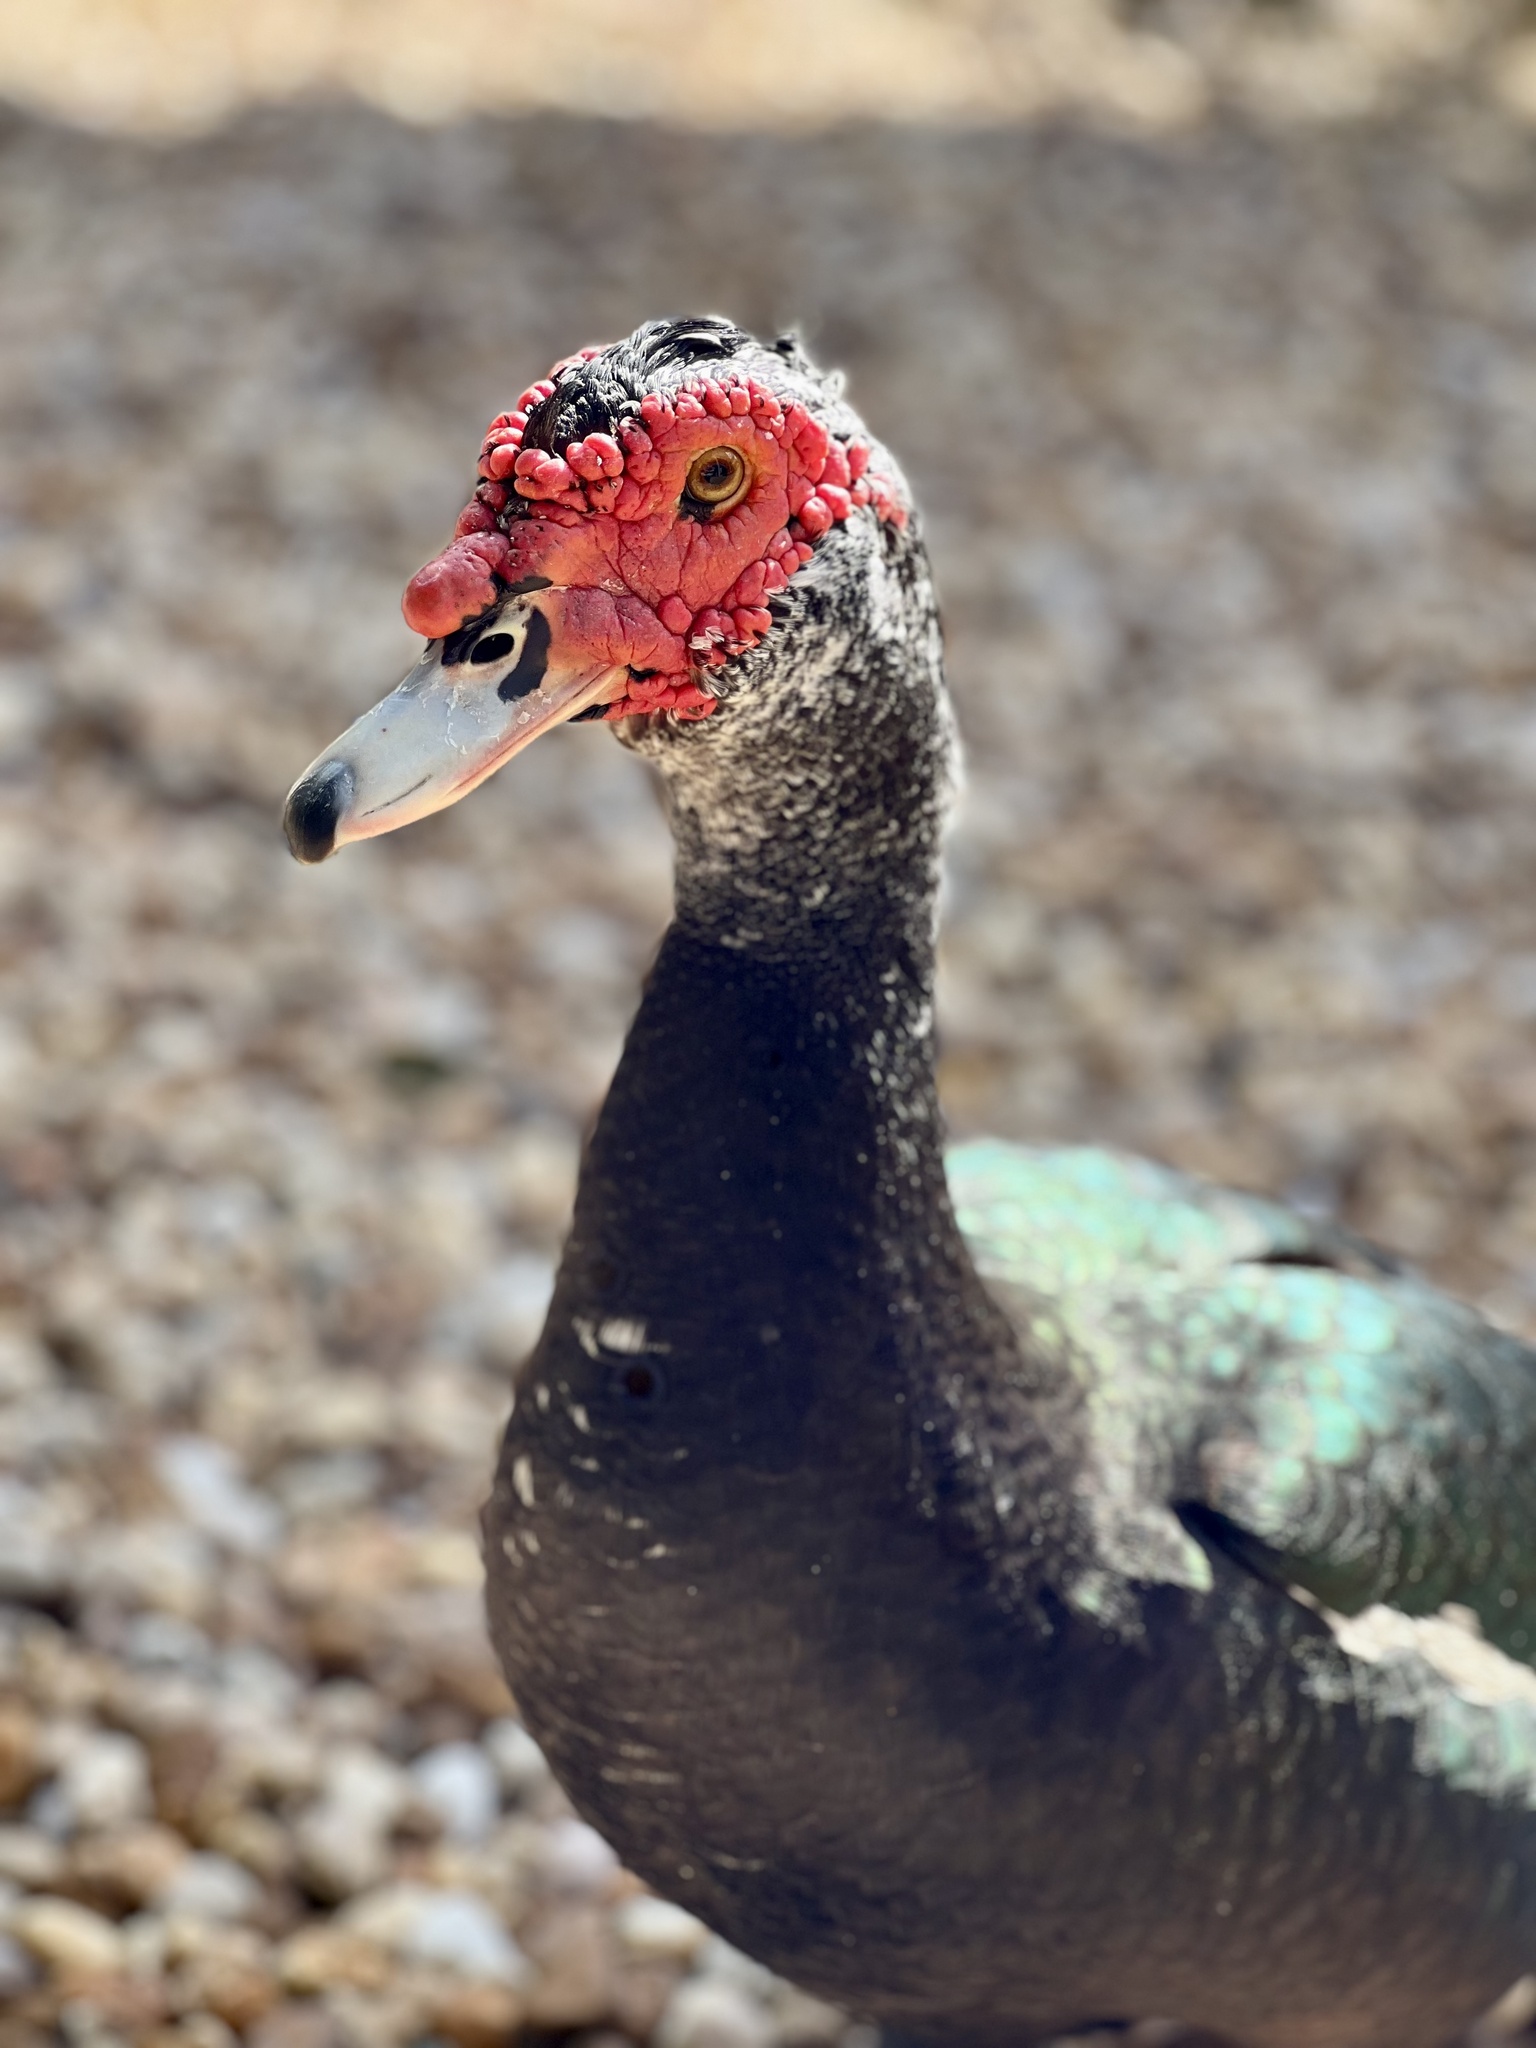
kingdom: Animalia
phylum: Chordata
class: Aves
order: Anseriformes
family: Anatidae
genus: Cairina
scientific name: Cairina moschata
